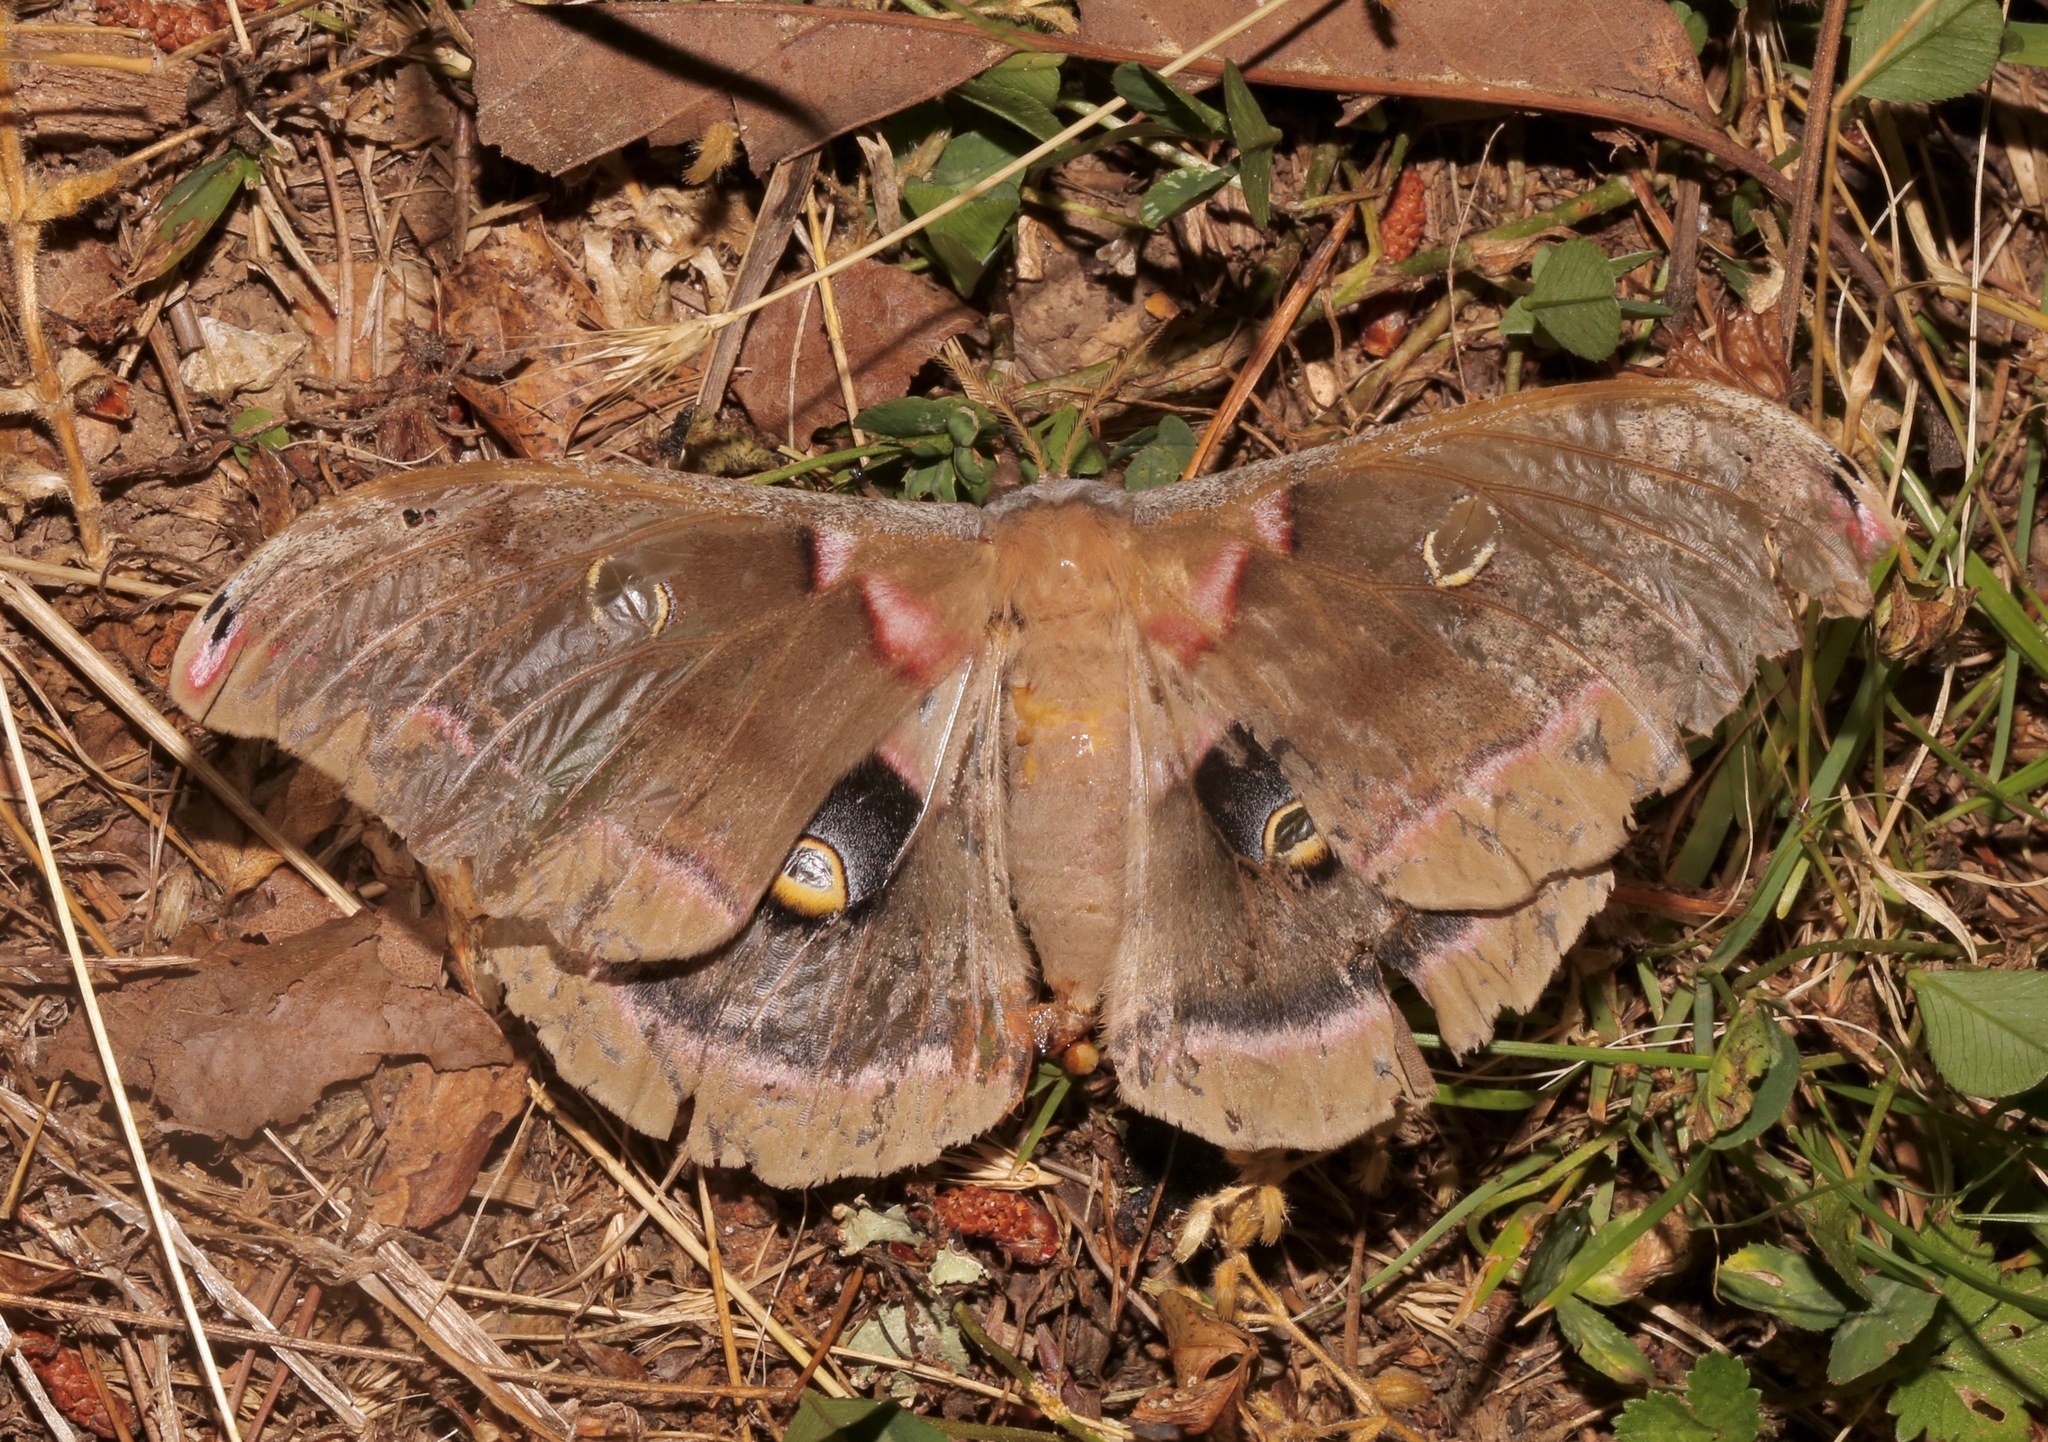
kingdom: Animalia
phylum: Arthropoda
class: Insecta
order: Lepidoptera
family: Saturniidae
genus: Antheraea
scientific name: Antheraea polyphemus
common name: Polyphemus moth
